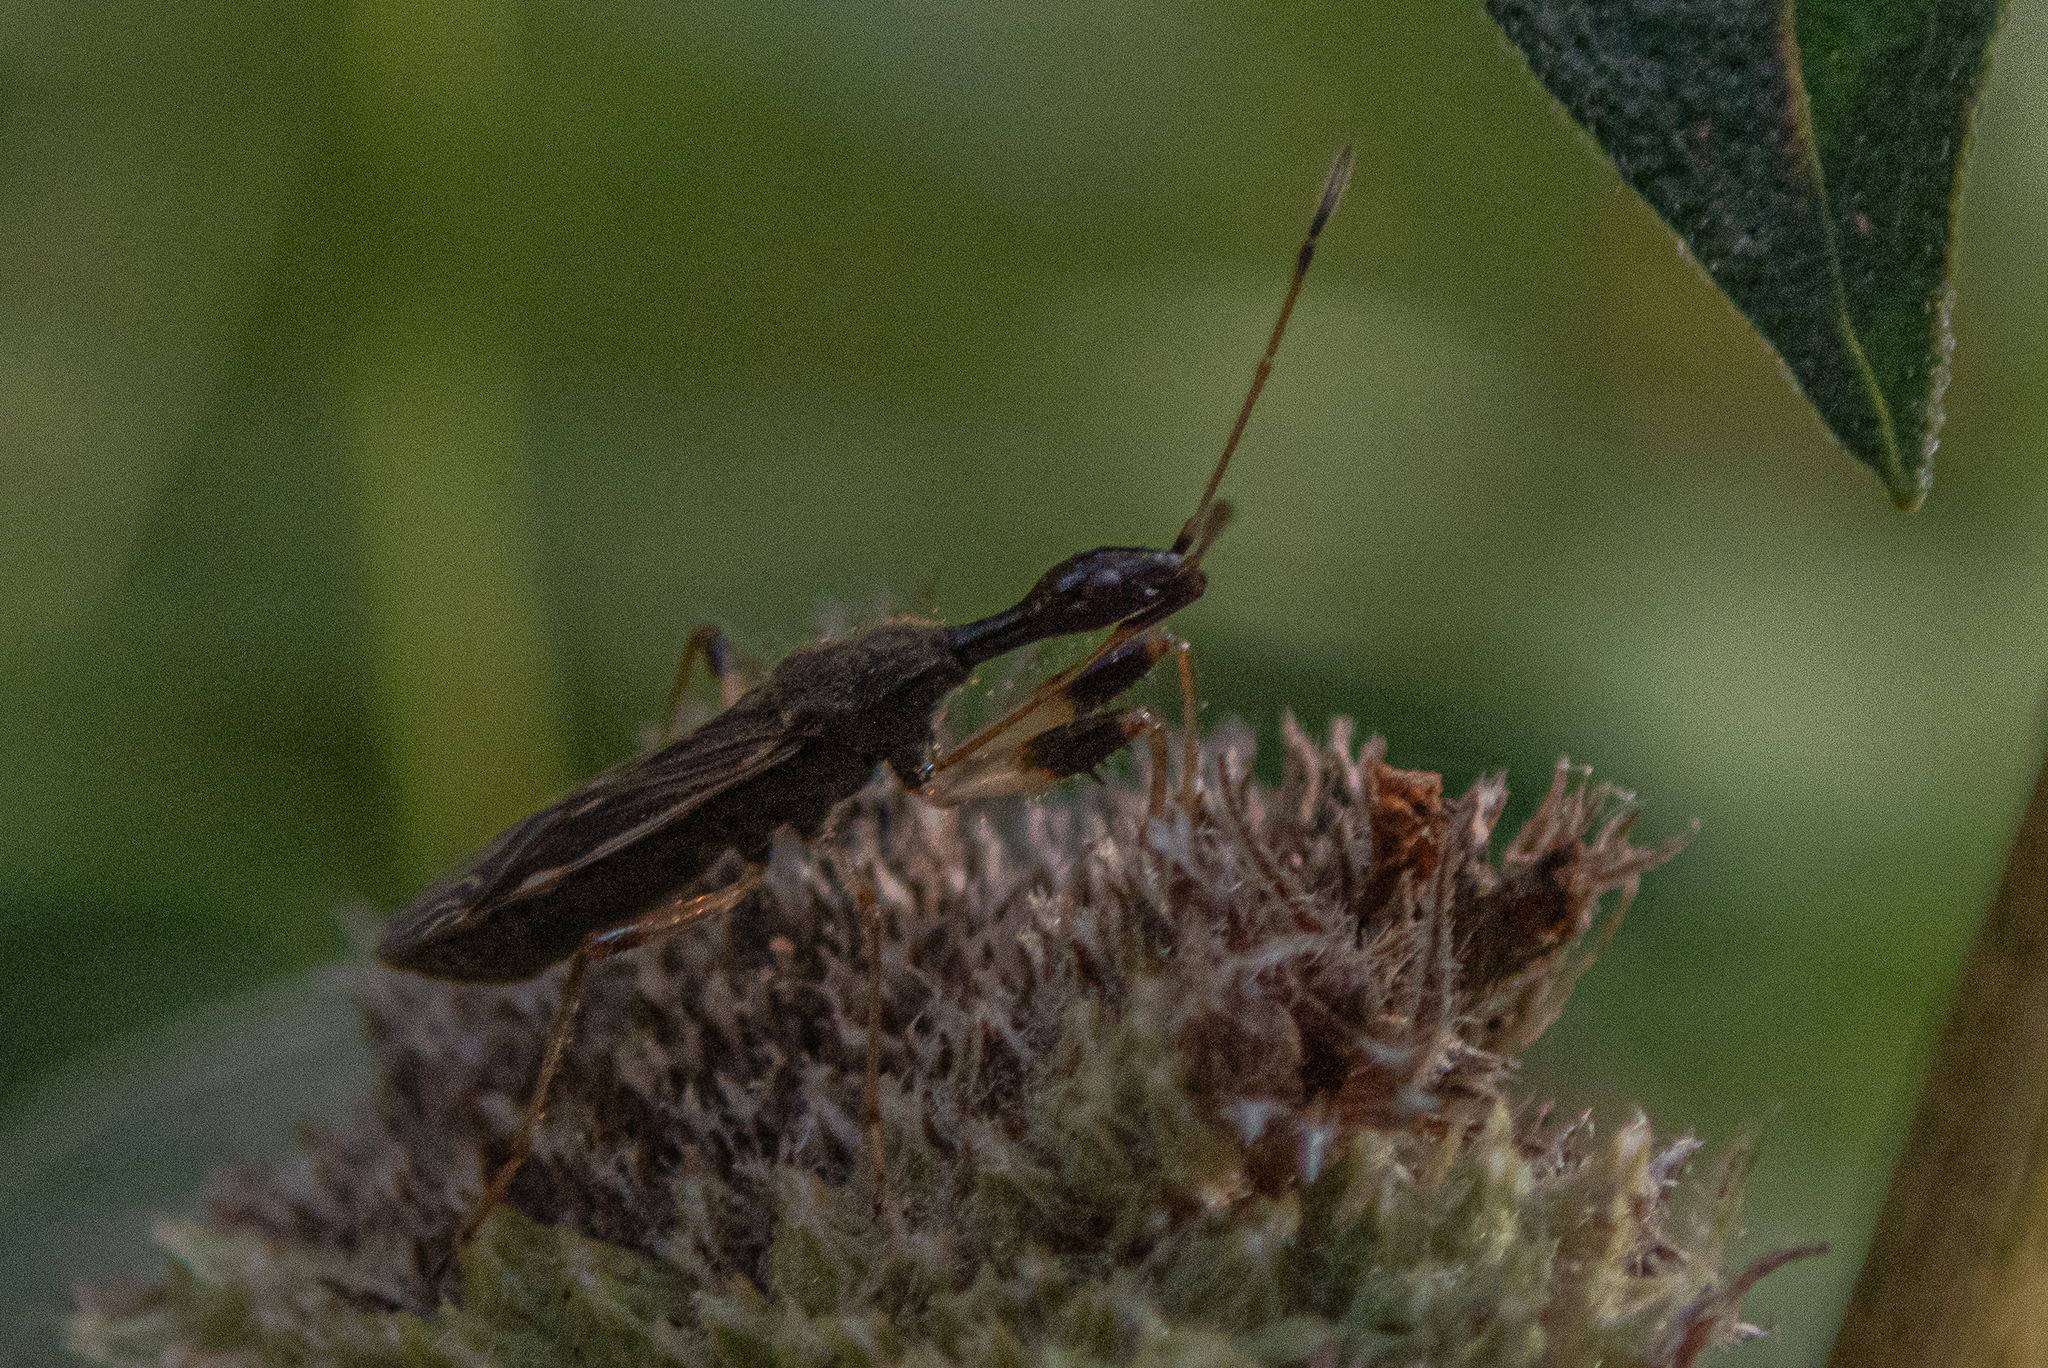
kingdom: Animalia
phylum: Arthropoda
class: Insecta
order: Hemiptera
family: Rhyparochromidae
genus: Myodocha
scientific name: Myodocha serripes
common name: Long-necked seed bug
